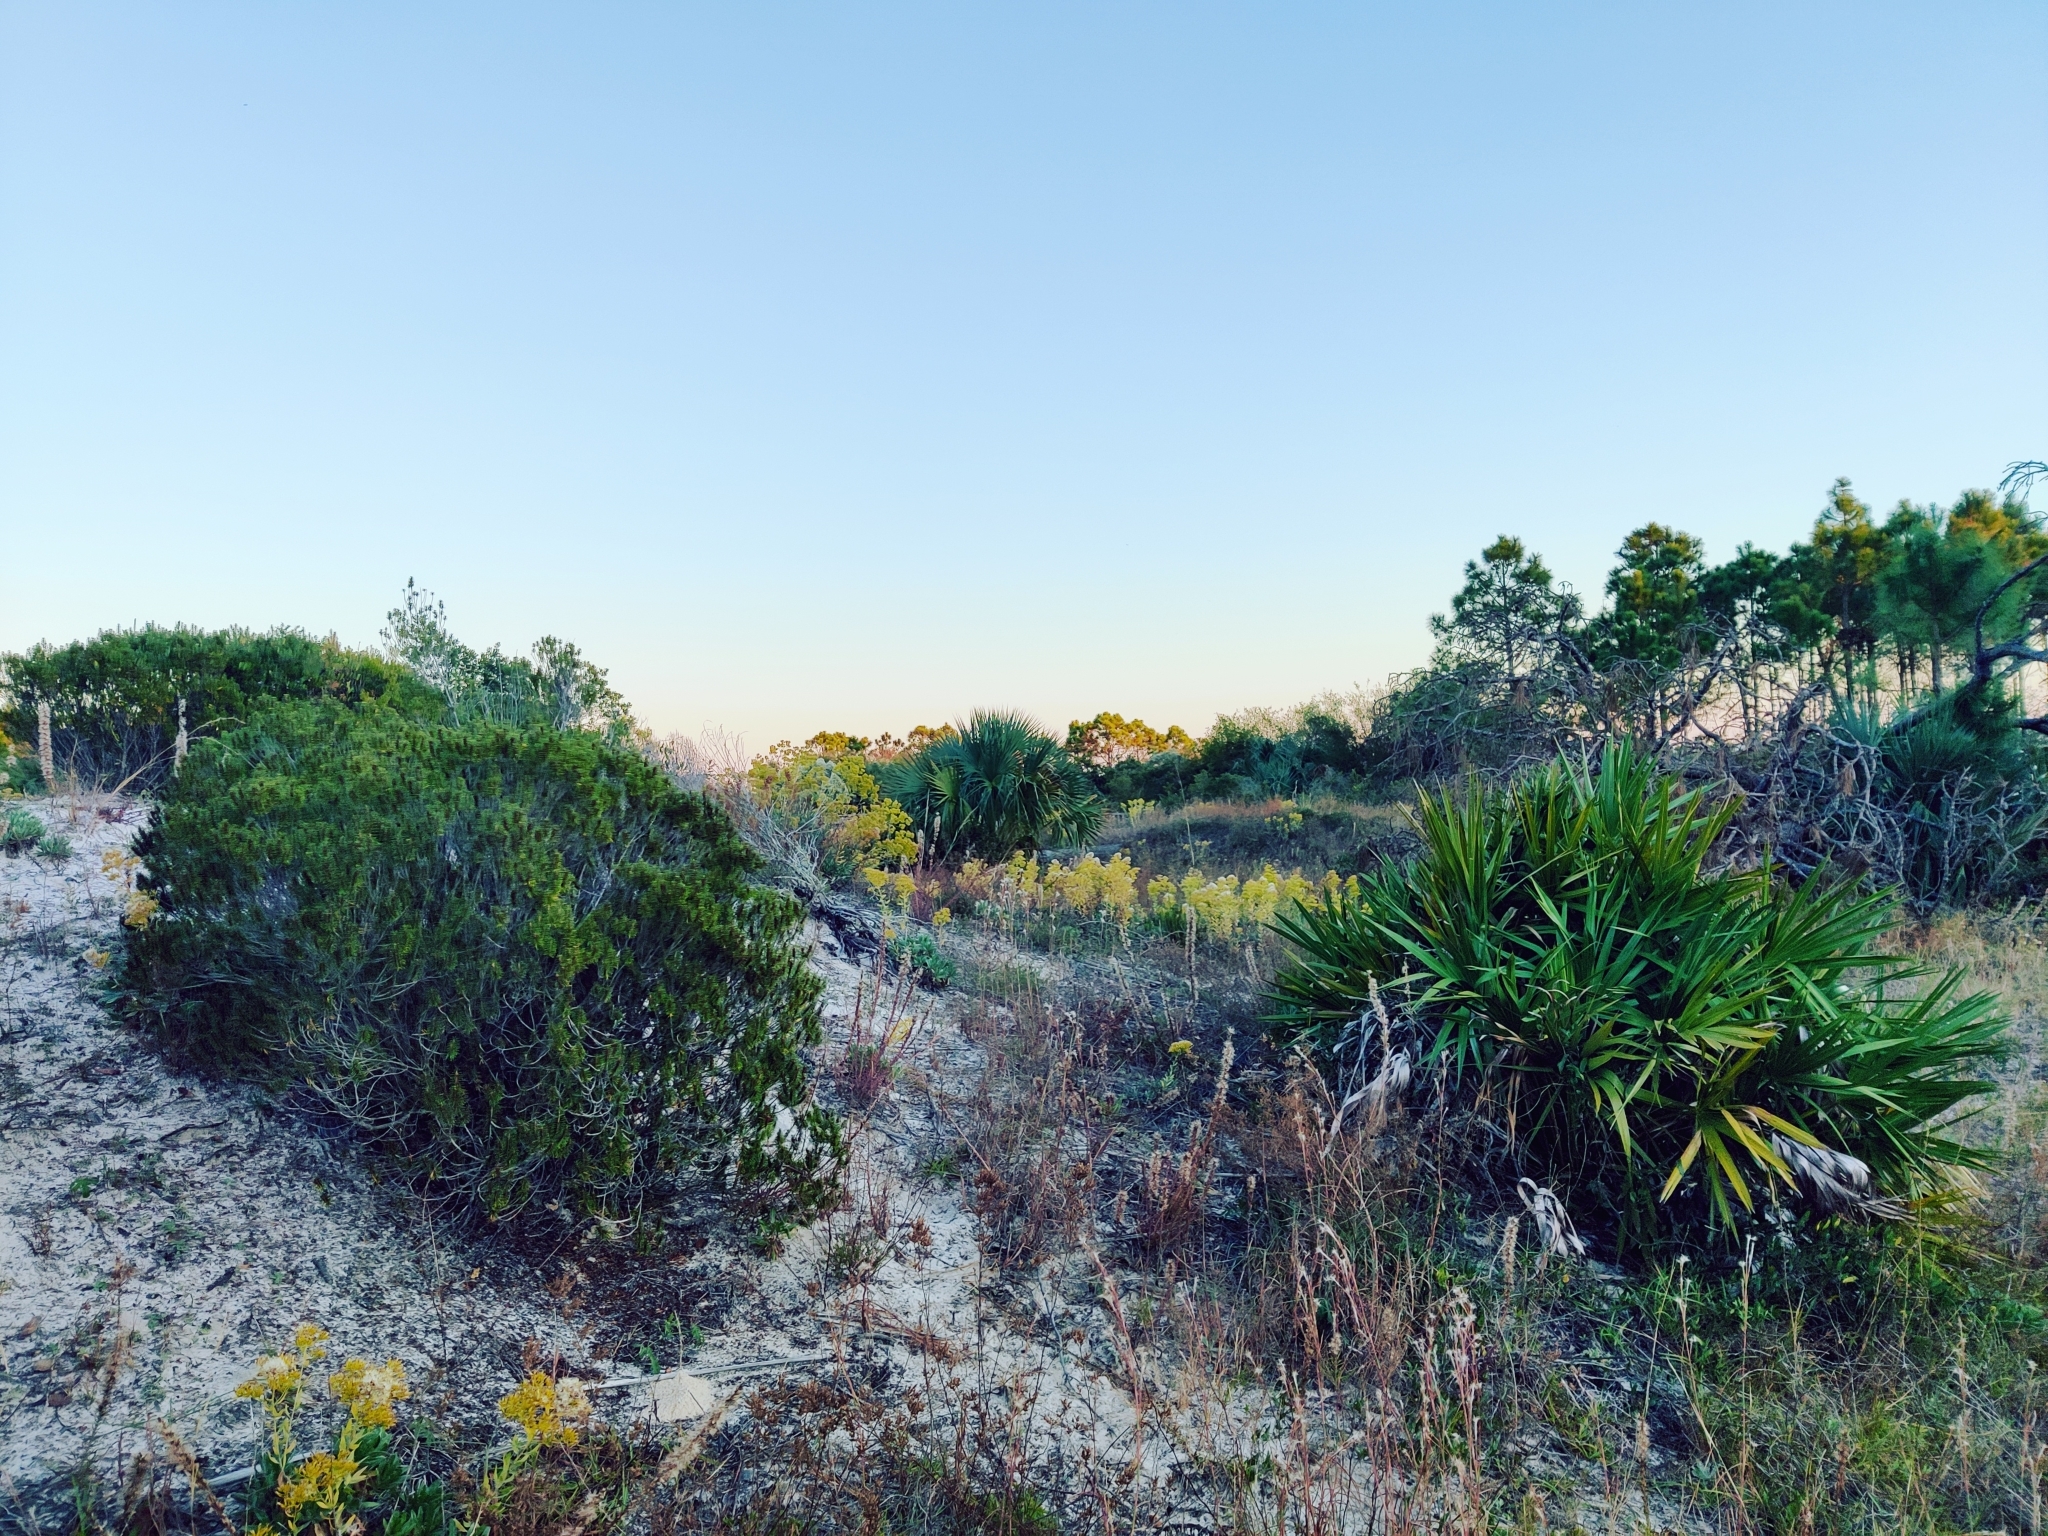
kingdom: Plantae
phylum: Tracheophyta
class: Magnoliopsida
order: Ericales
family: Ericaceae
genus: Ceratiola
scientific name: Ceratiola ericoides
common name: Sandhill-rosemary
